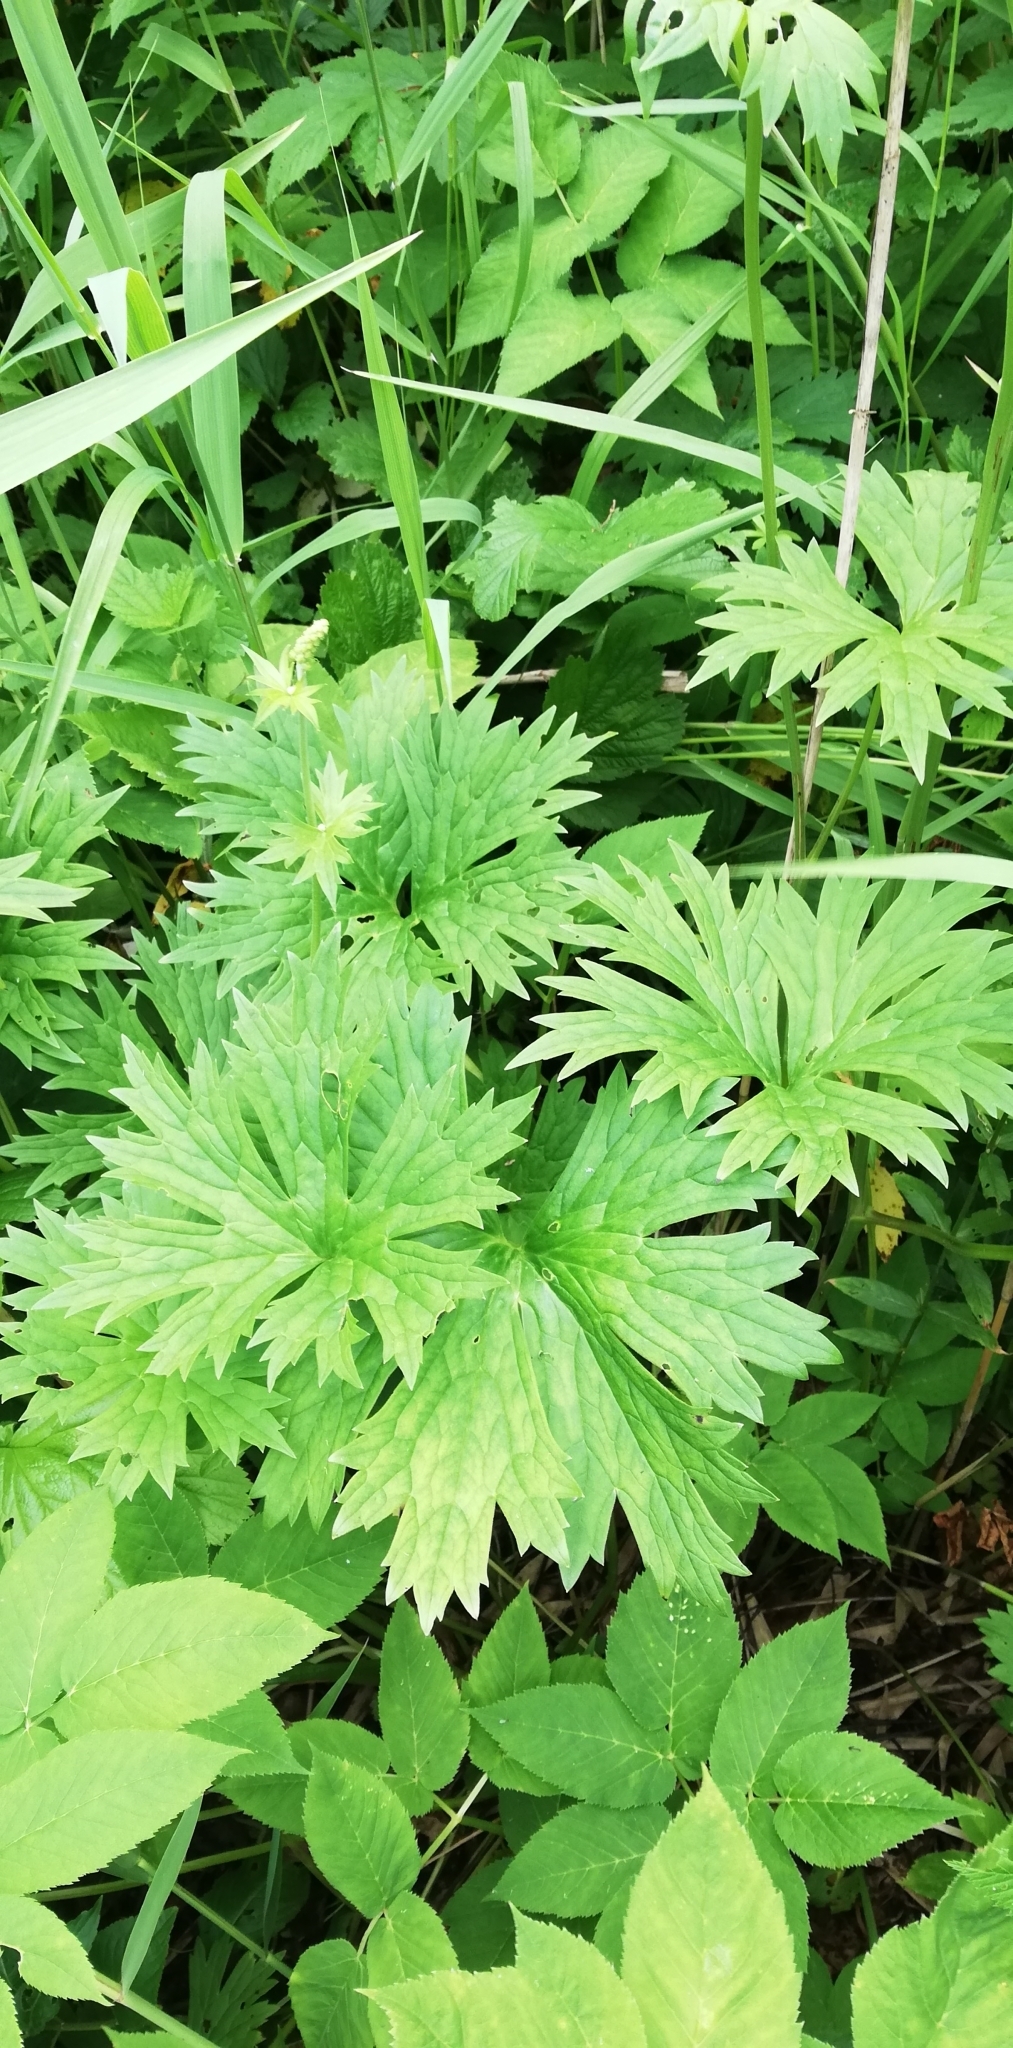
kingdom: Plantae
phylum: Tracheophyta
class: Magnoliopsida
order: Ranunculales
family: Ranunculaceae
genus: Aconitum
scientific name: Aconitum lasiostomum
